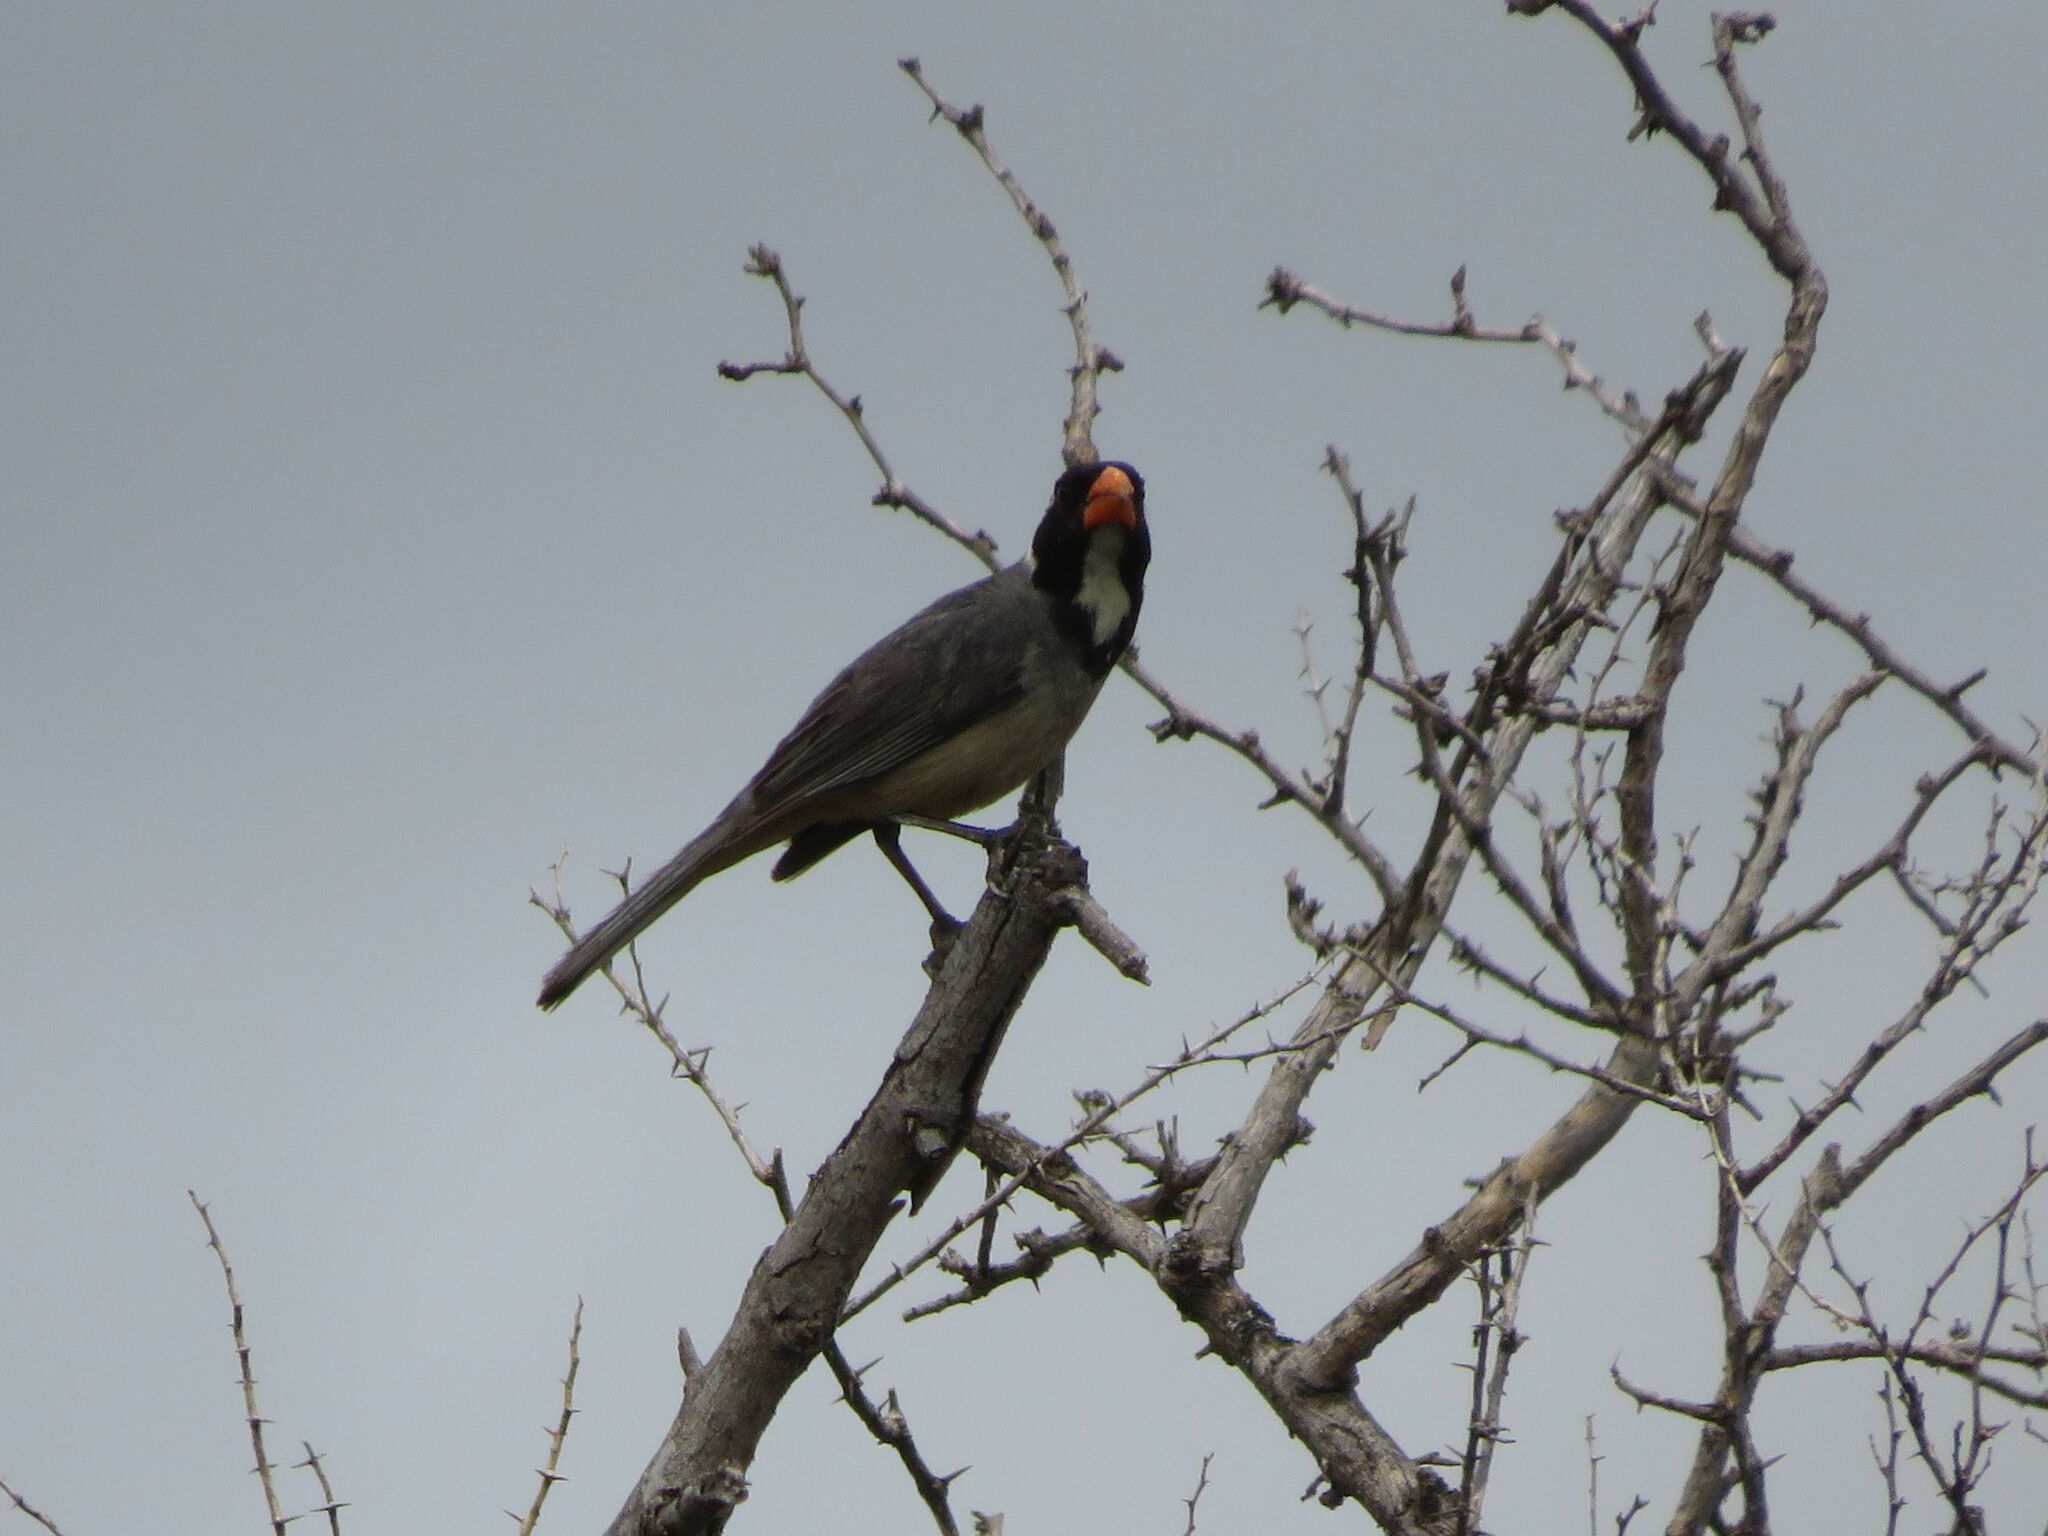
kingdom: Animalia
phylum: Chordata
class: Aves
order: Passeriformes
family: Thraupidae
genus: Saltator
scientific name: Saltator aurantiirostris
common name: Golden-billed saltator
